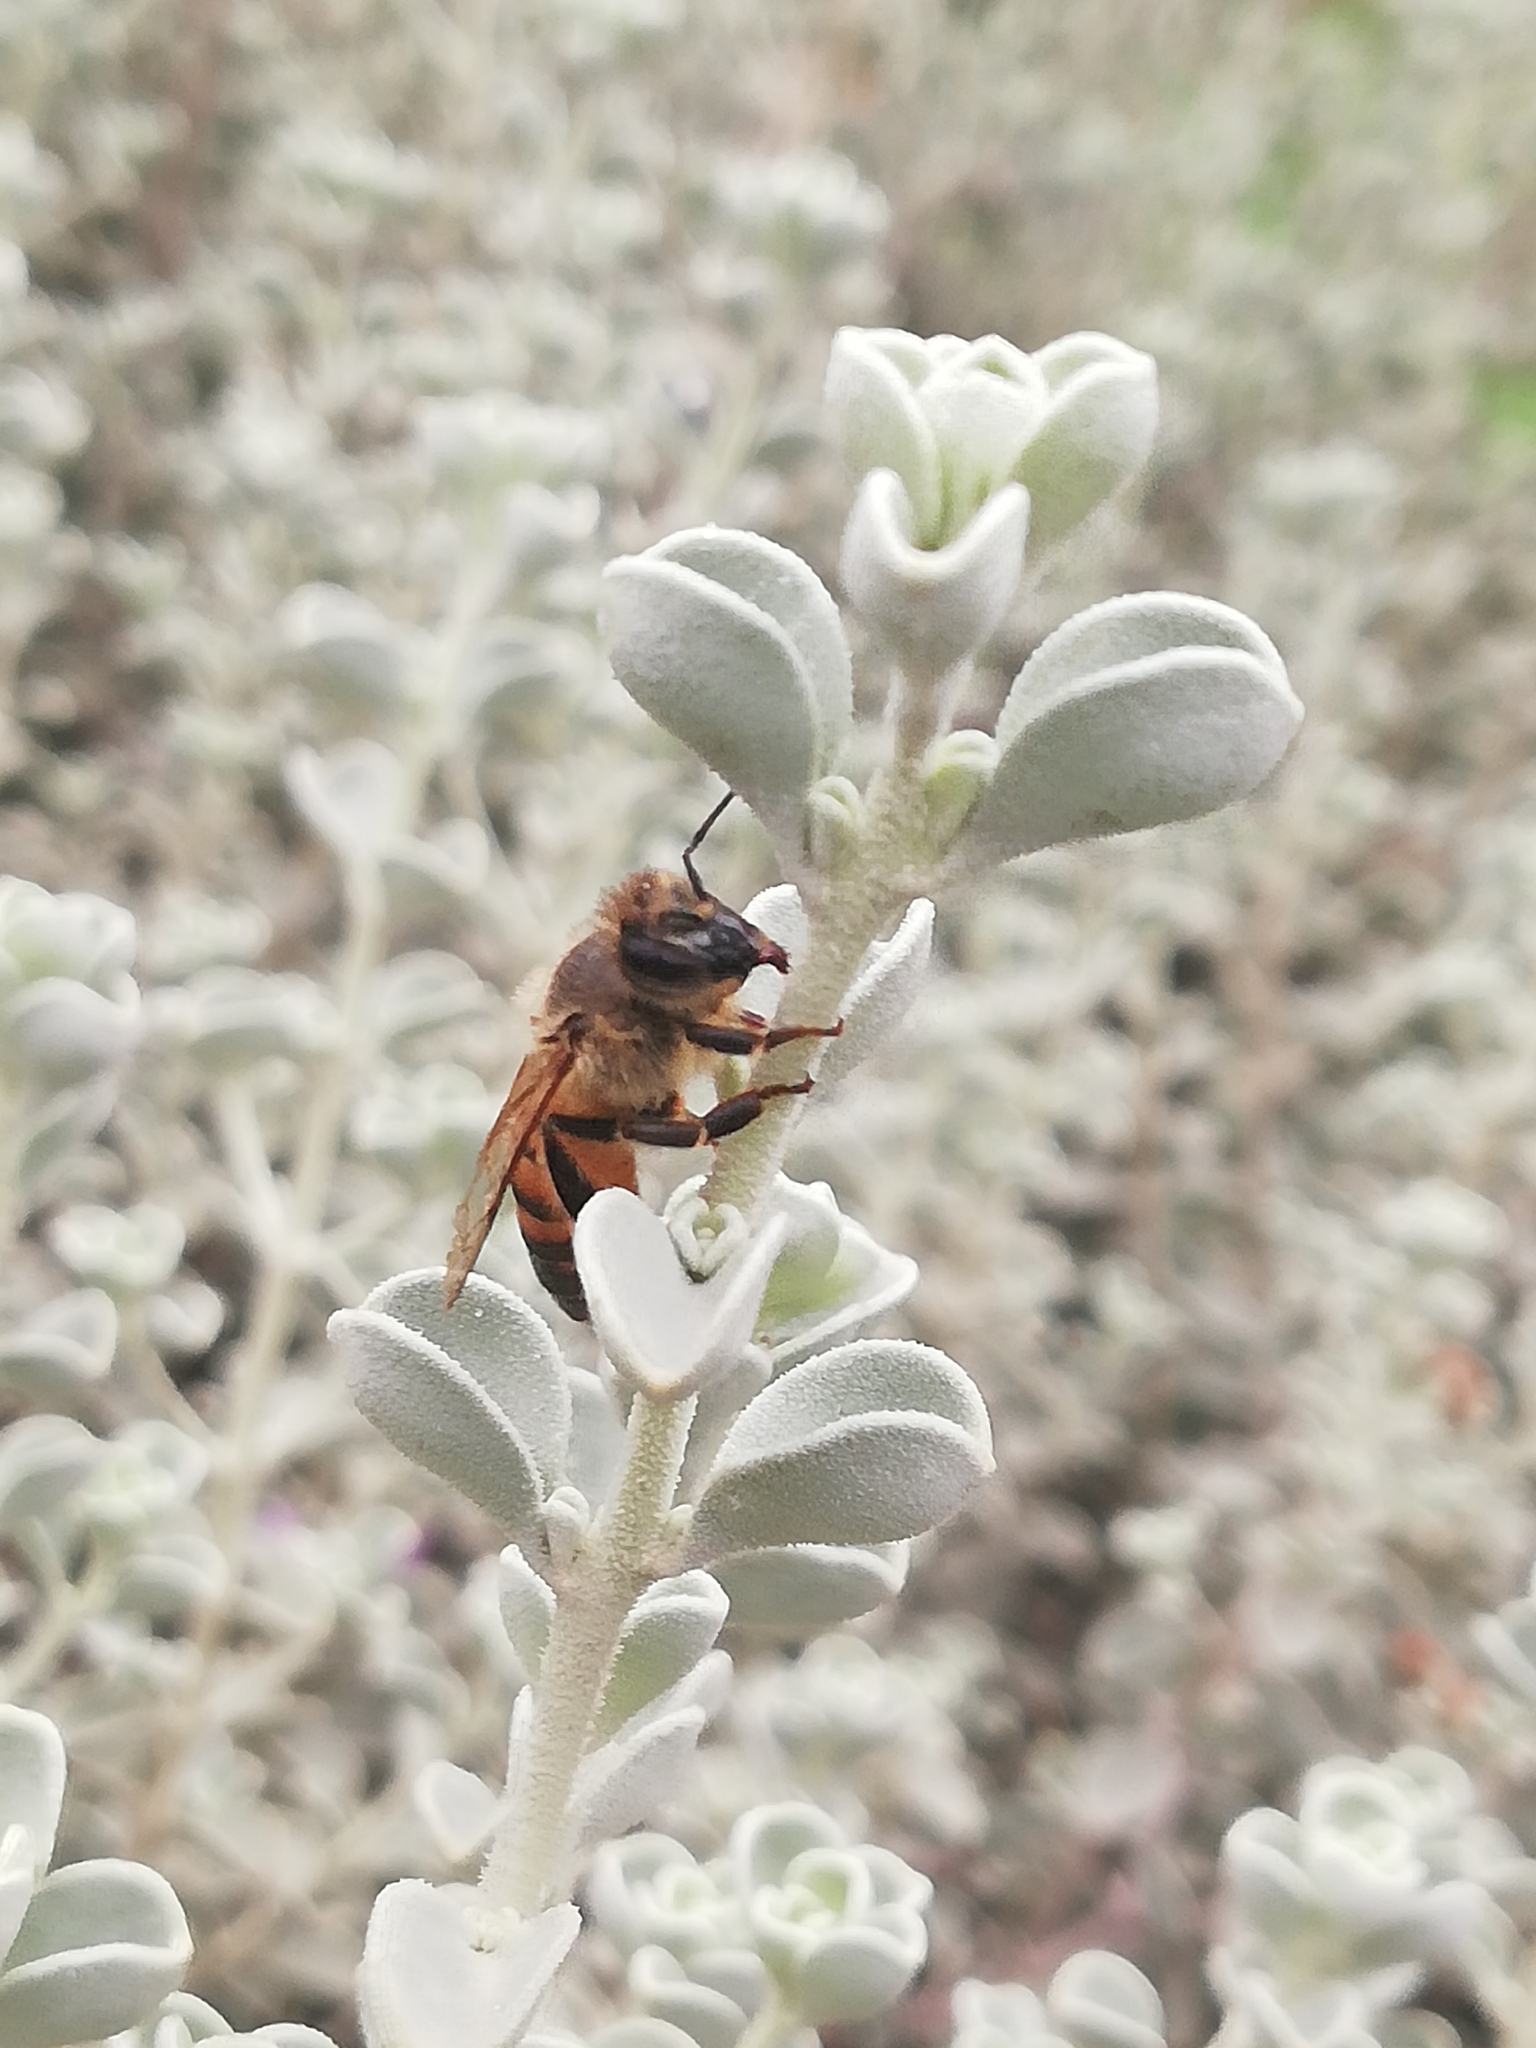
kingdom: Animalia
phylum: Arthropoda
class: Insecta
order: Hymenoptera
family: Apidae
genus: Apis
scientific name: Apis mellifera
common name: Honey bee
